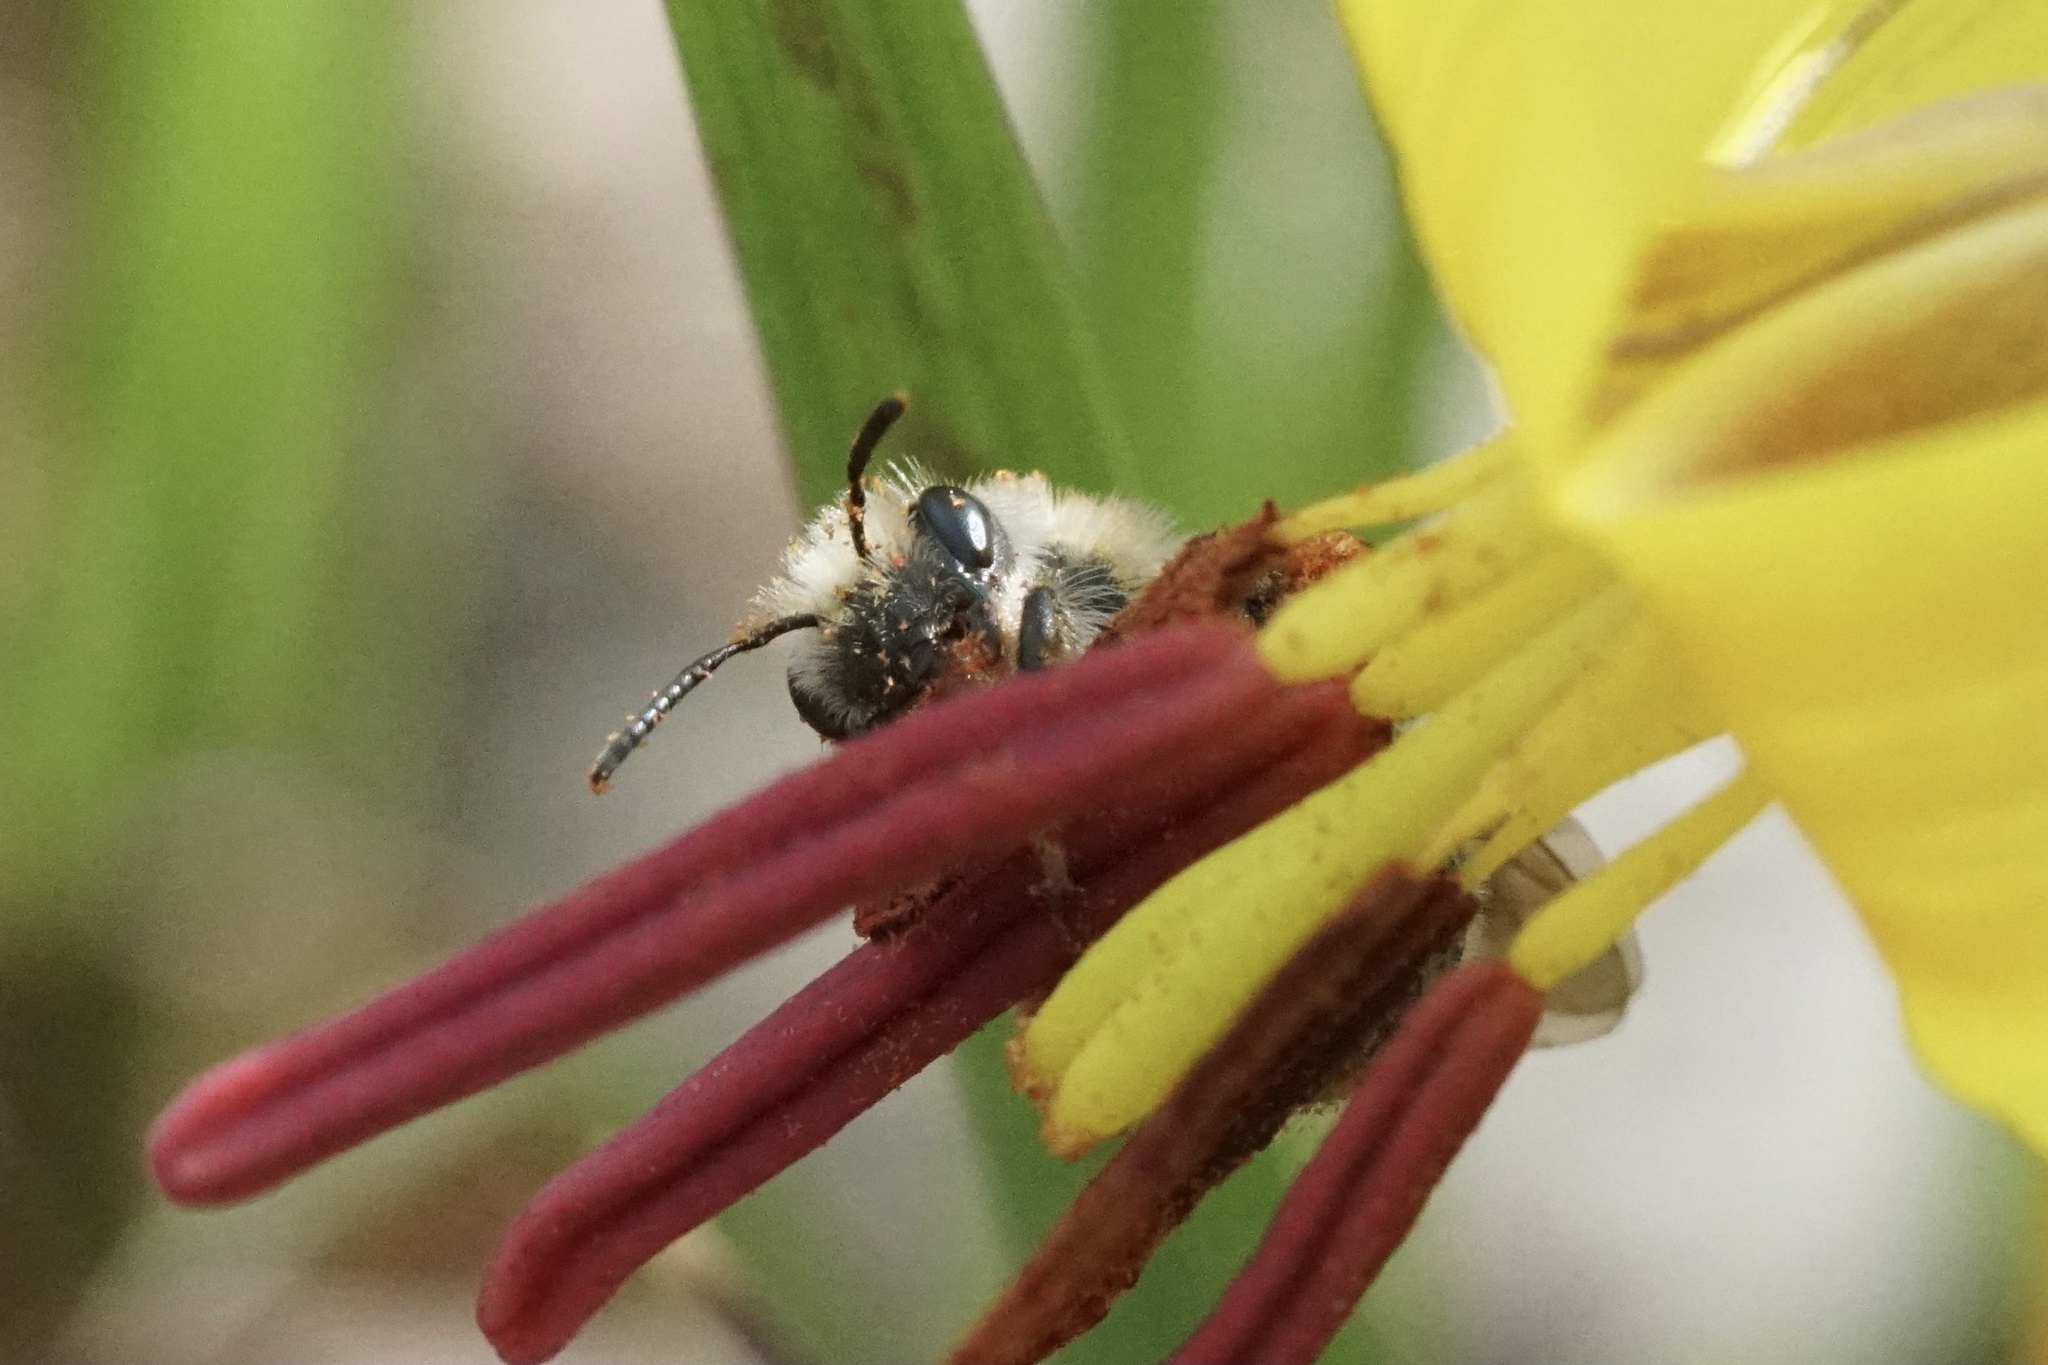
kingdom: Animalia
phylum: Arthropoda
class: Insecta
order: Hymenoptera
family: Andrenidae
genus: Andrena
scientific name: Andrena erythronii
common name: Trout-lily mining bee
